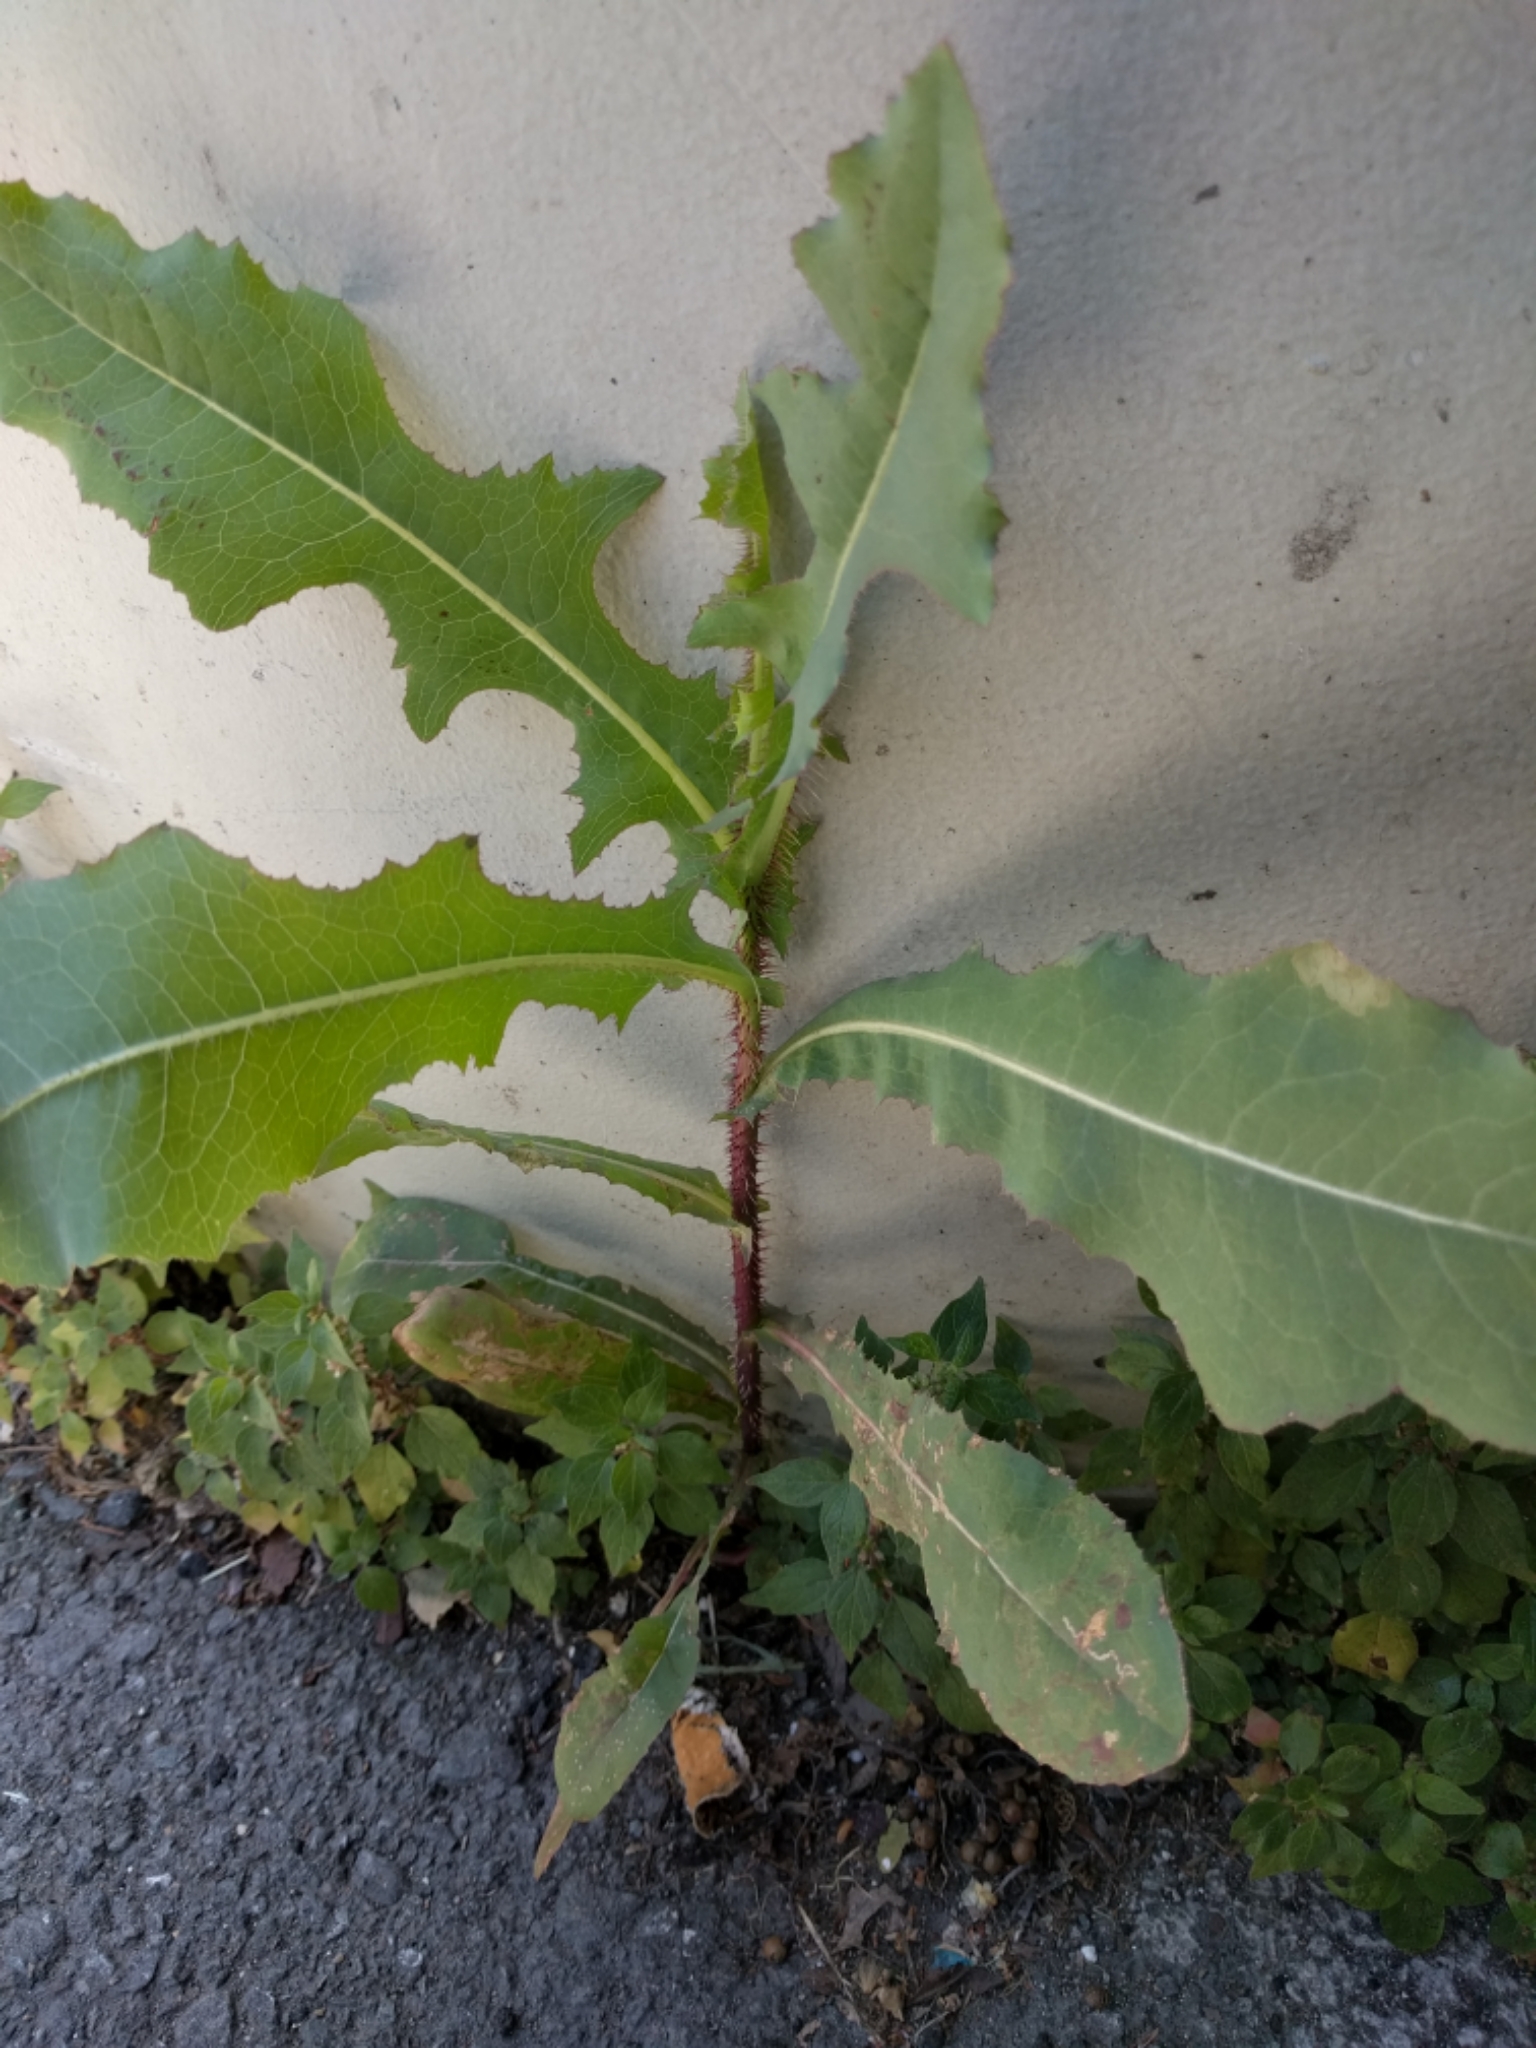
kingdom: Plantae
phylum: Tracheophyta
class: Magnoliopsida
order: Asterales
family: Asteraceae
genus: Lactuca
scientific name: Lactuca serriola
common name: Prickly lettuce
